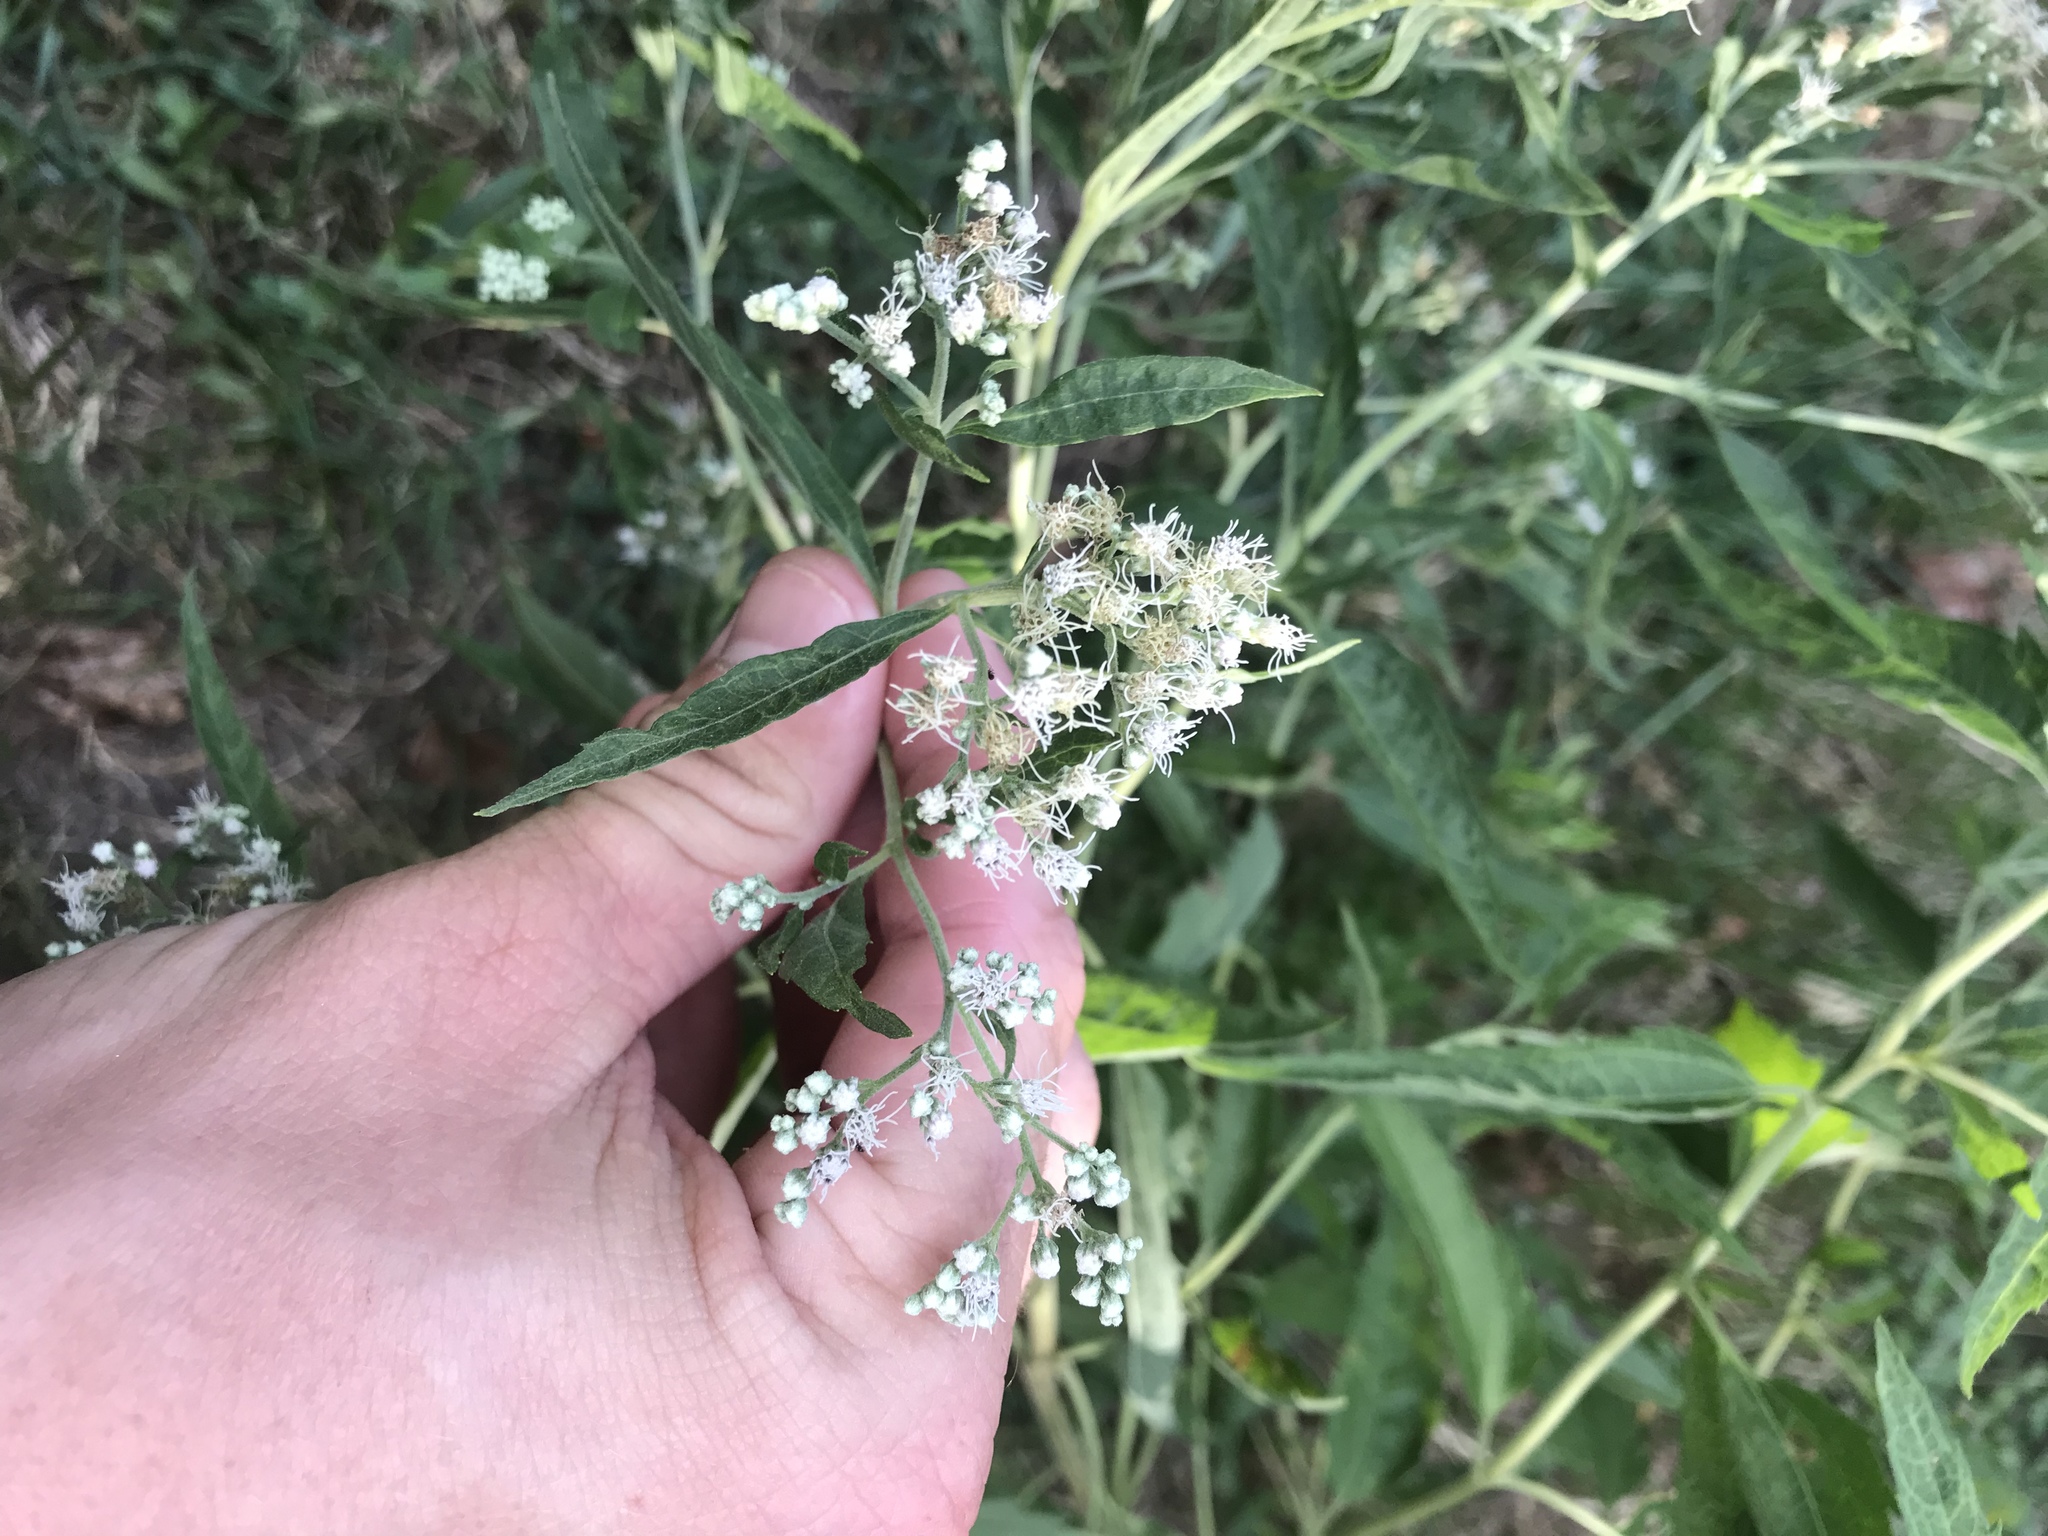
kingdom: Plantae
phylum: Tracheophyta
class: Magnoliopsida
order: Asterales
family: Asteraceae
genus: Eupatorium
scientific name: Eupatorium serotinum
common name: Late boneset
